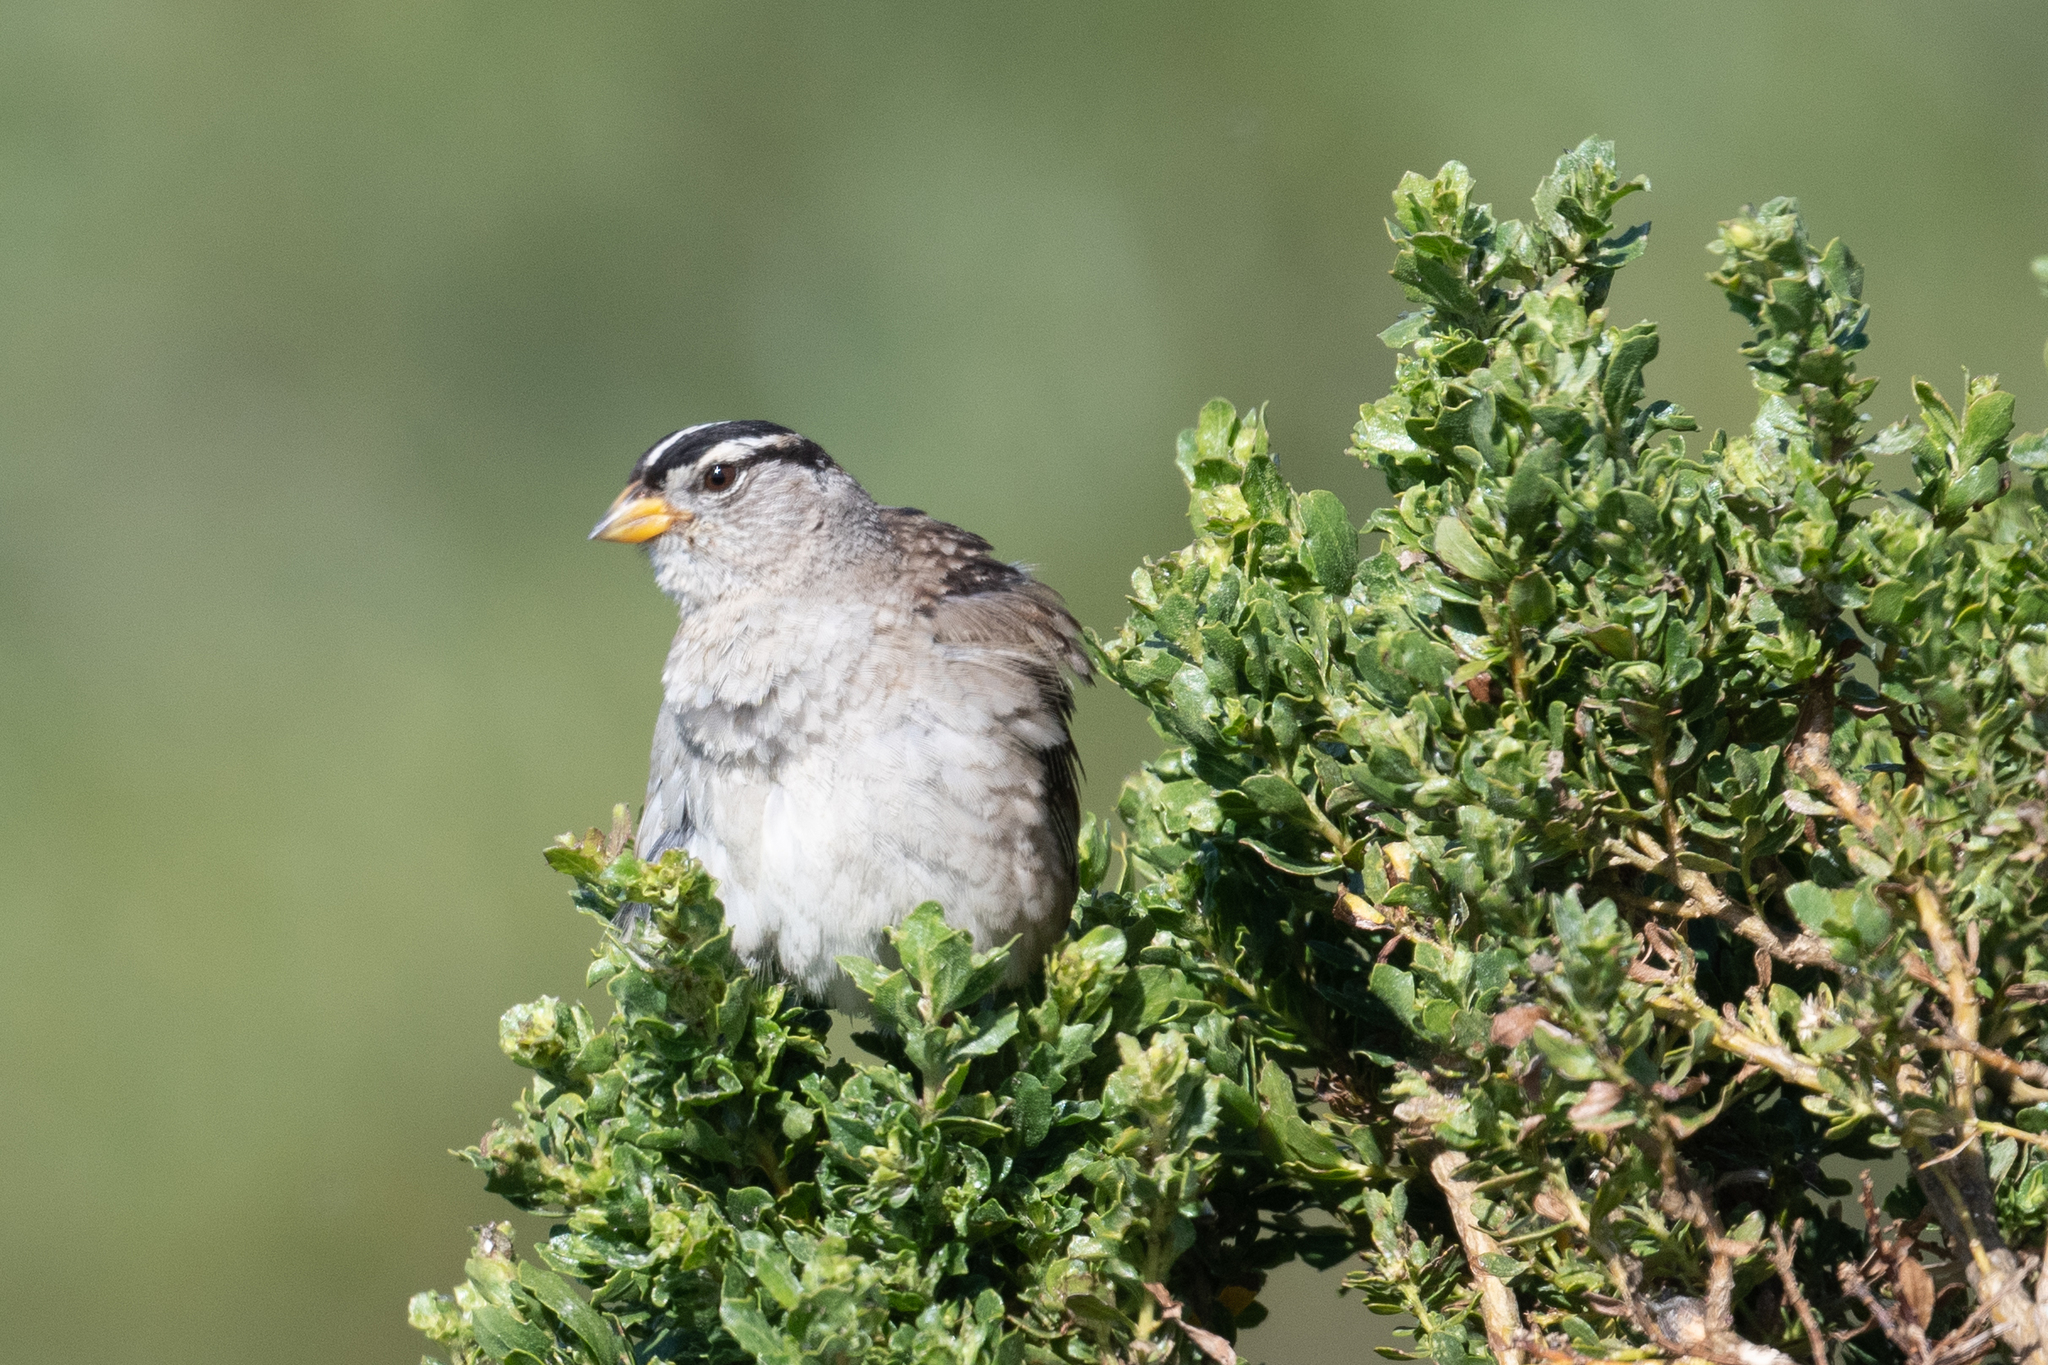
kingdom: Animalia
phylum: Chordata
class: Aves
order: Passeriformes
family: Passerellidae
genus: Zonotrichia
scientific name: Zonotrichia leucophrys
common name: White-crowned sparrow
